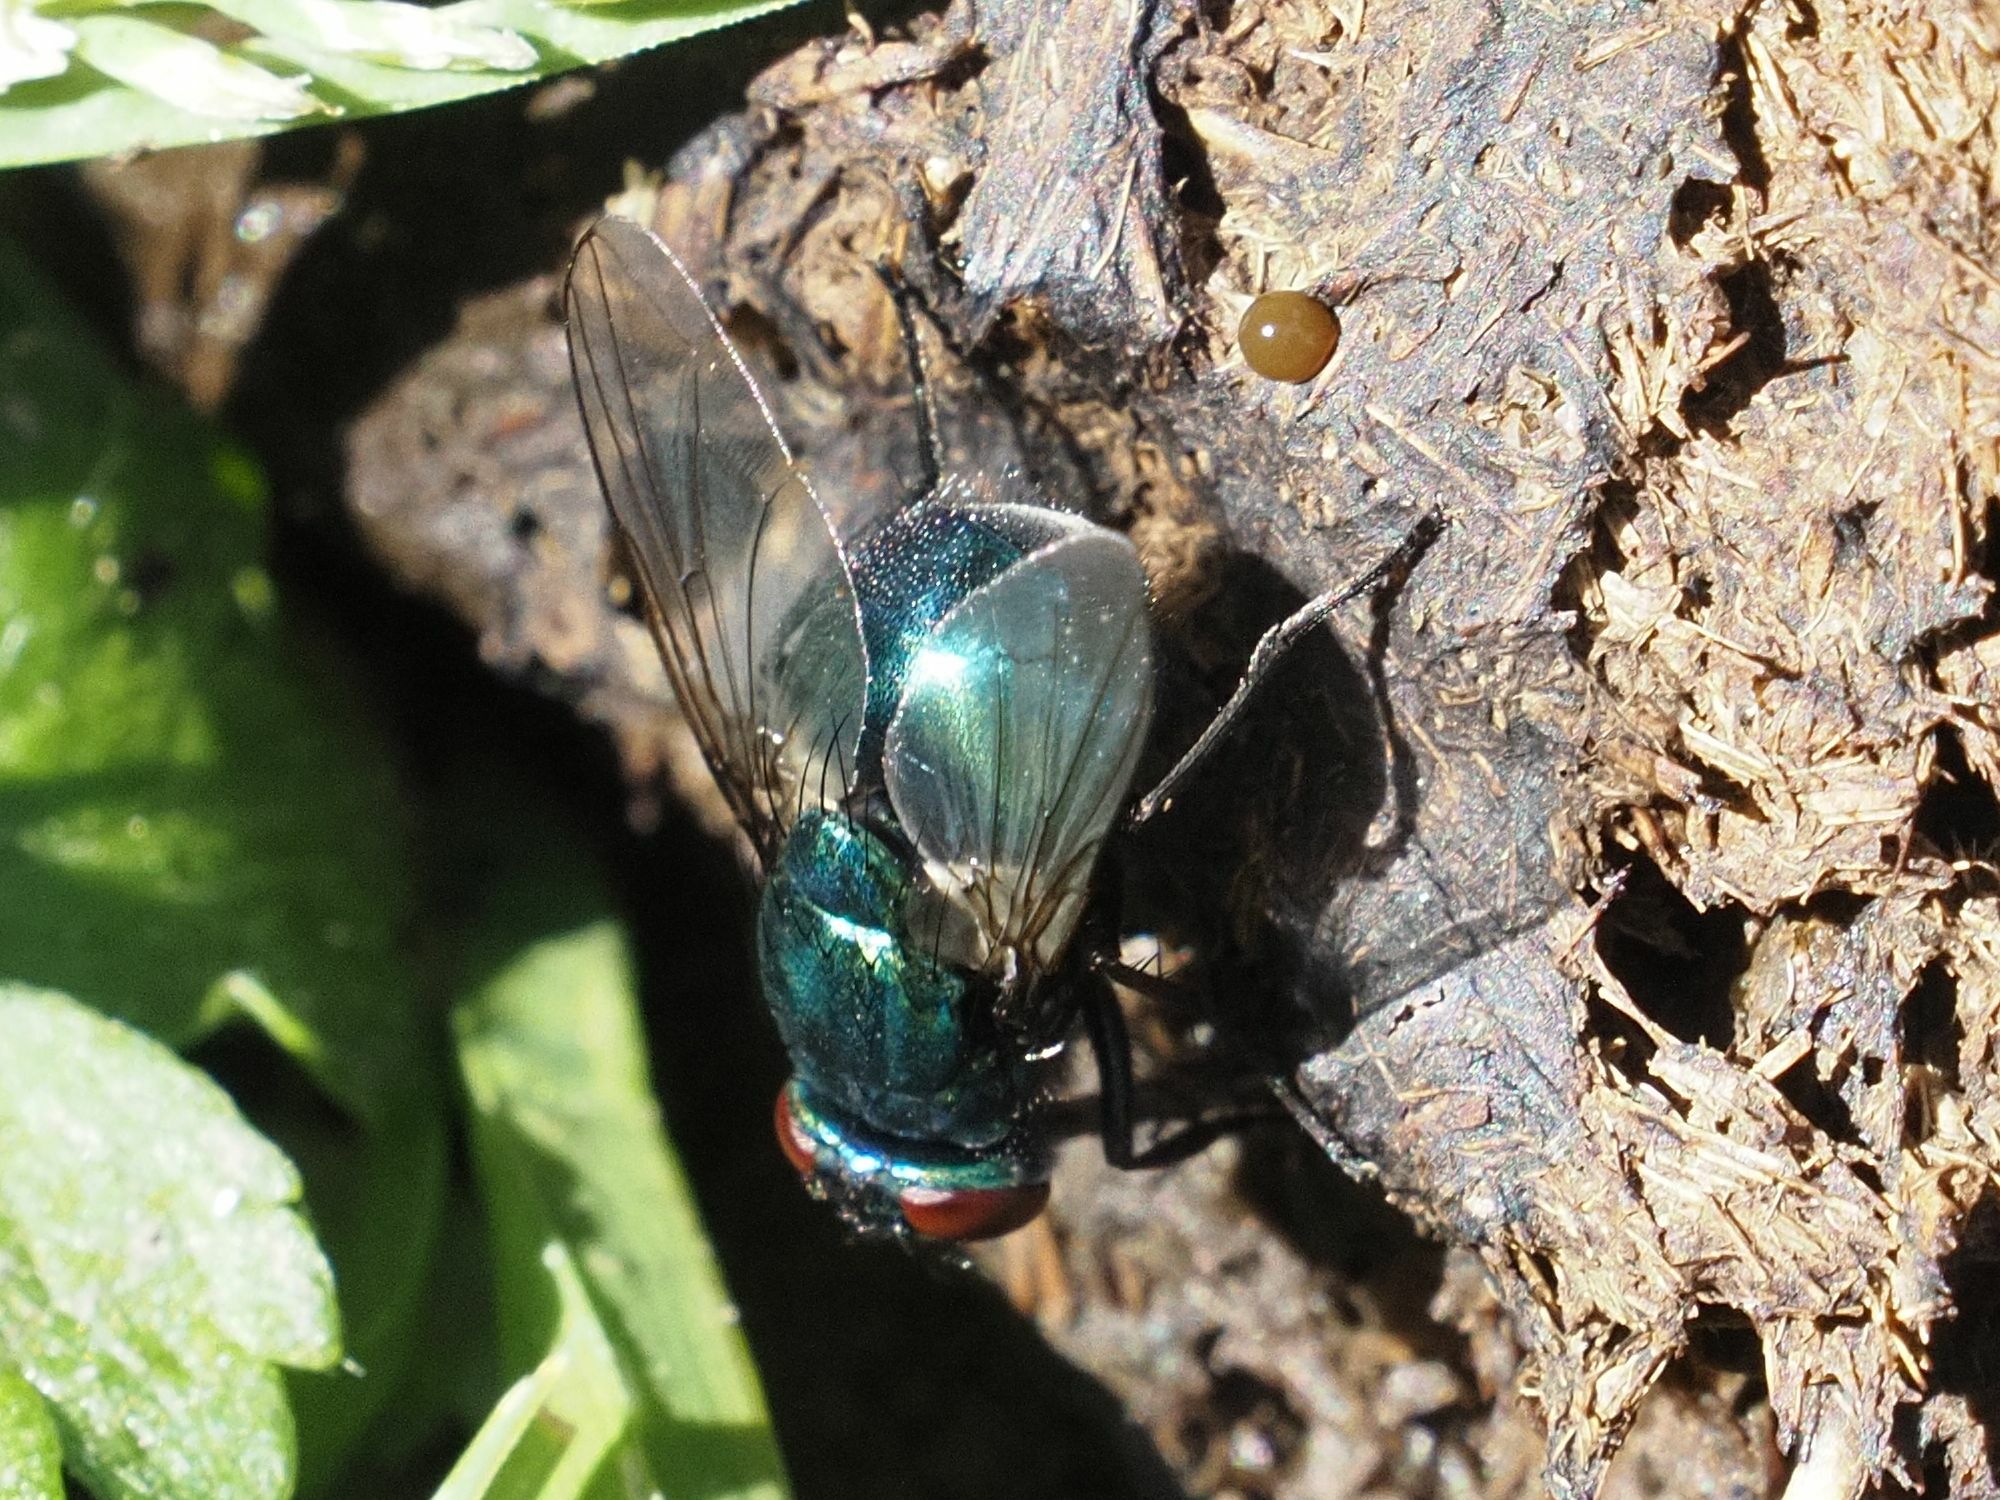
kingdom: Animalia
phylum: Arthropoda
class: Insecta
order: Diptera
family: Muscidae
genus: Neomyia
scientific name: Neomyia cornicina
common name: House fly
